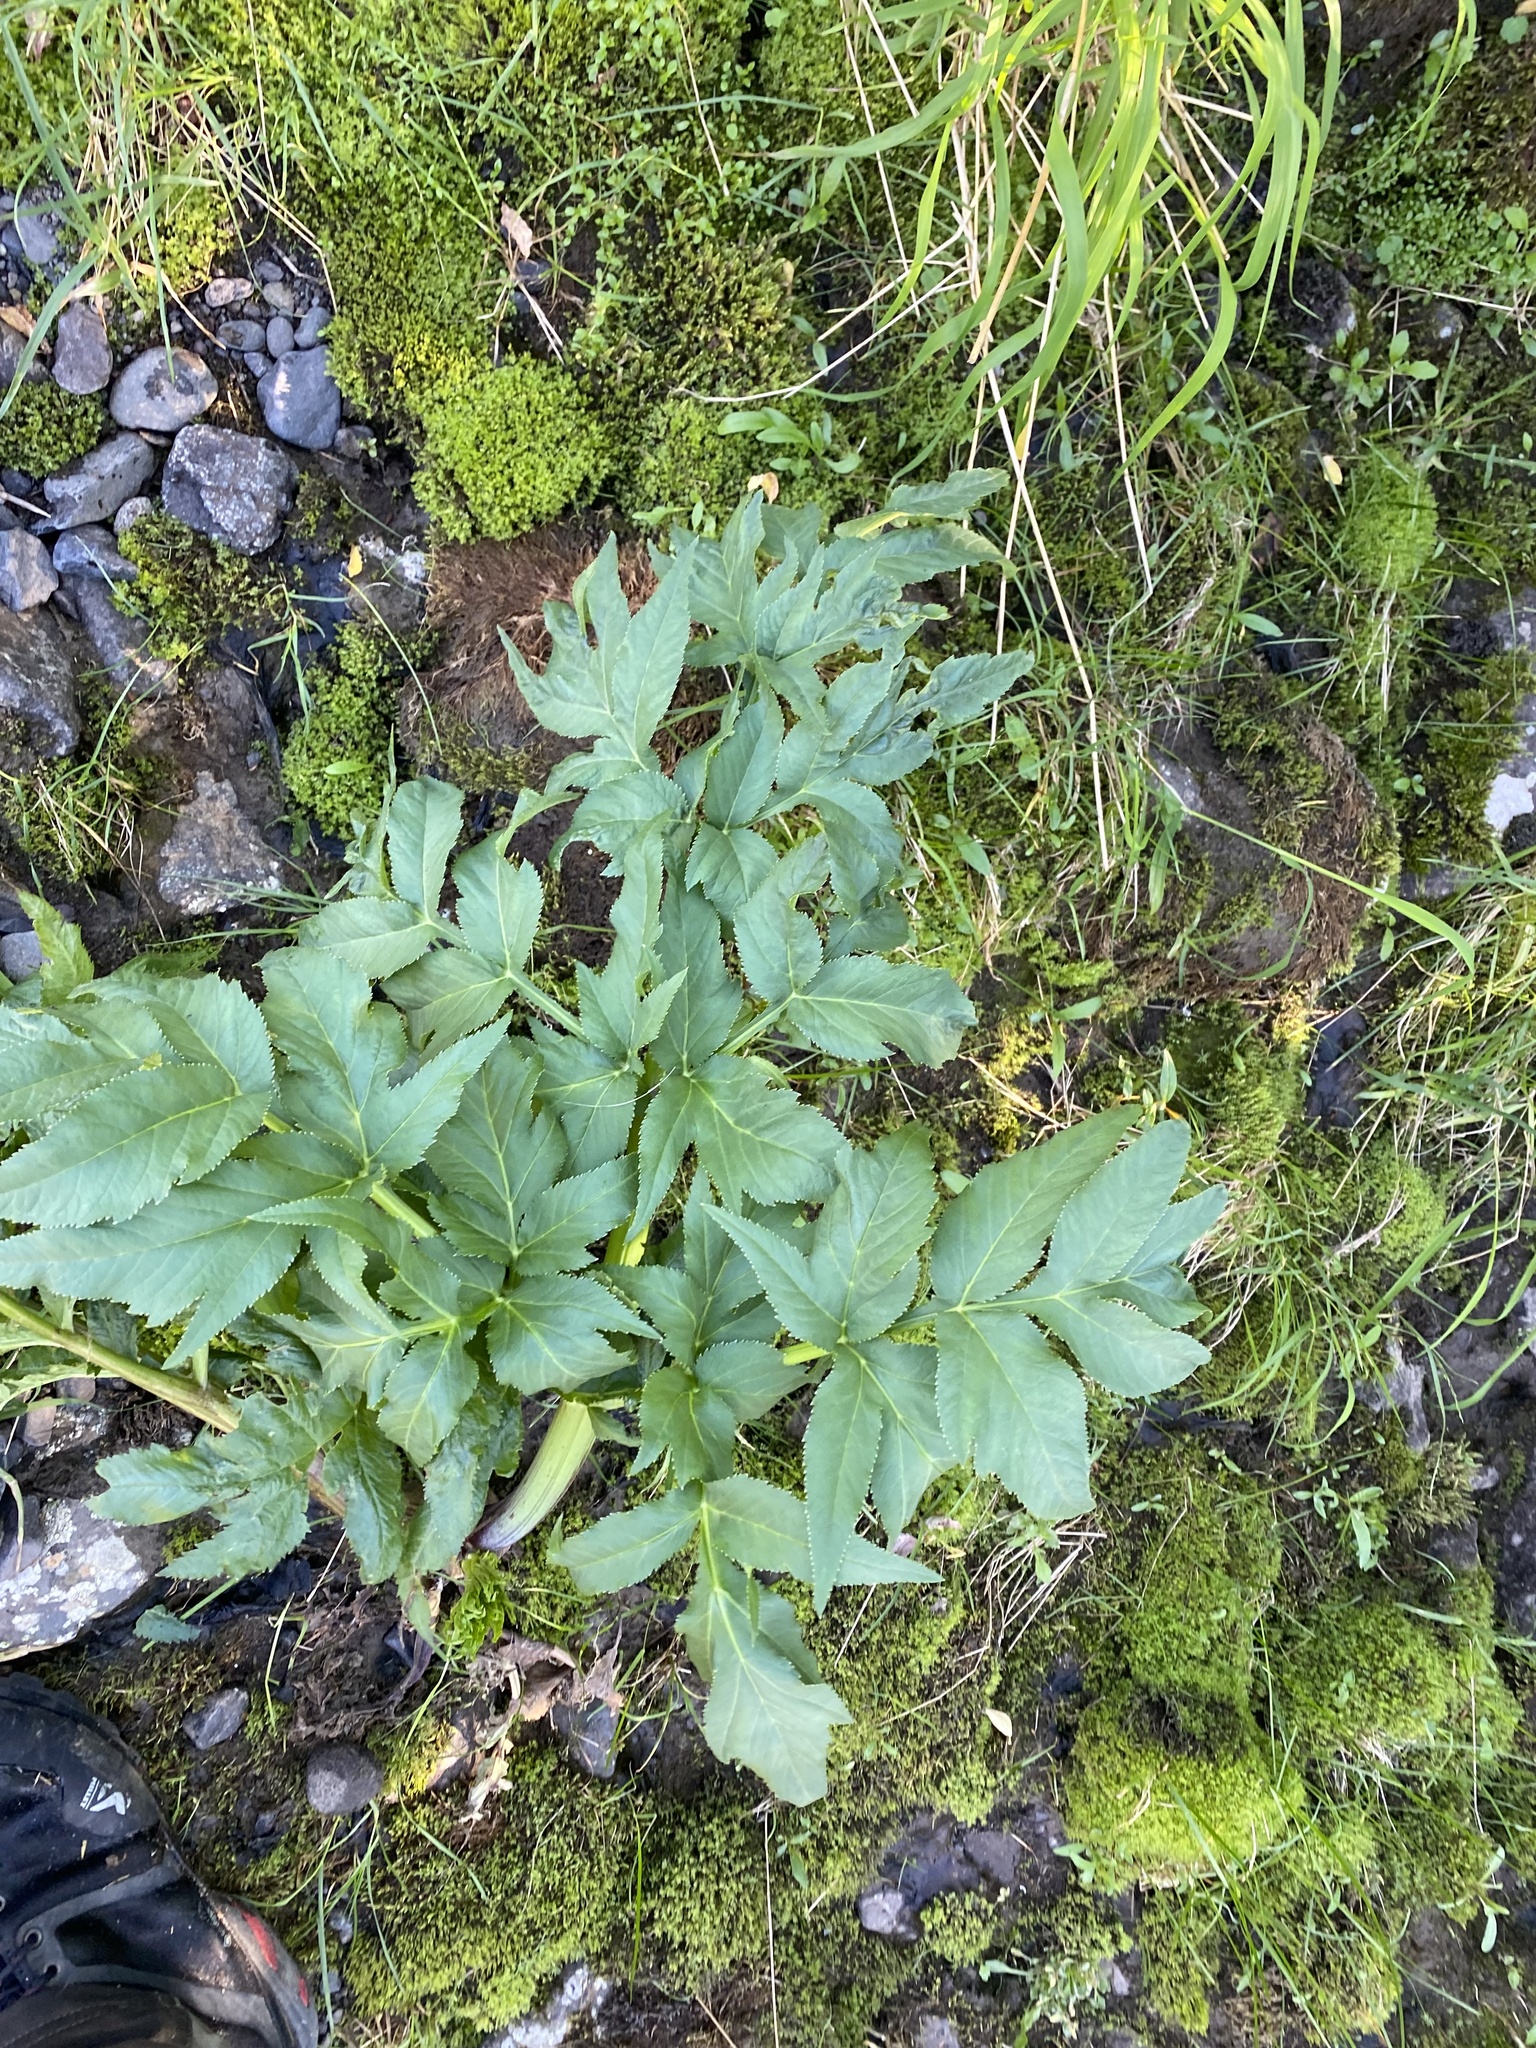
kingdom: Plantae
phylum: Tracheophyta
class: Magnoliopsida
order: Apiales
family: Apiaceae
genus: Angelica
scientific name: Angelica decurrens
